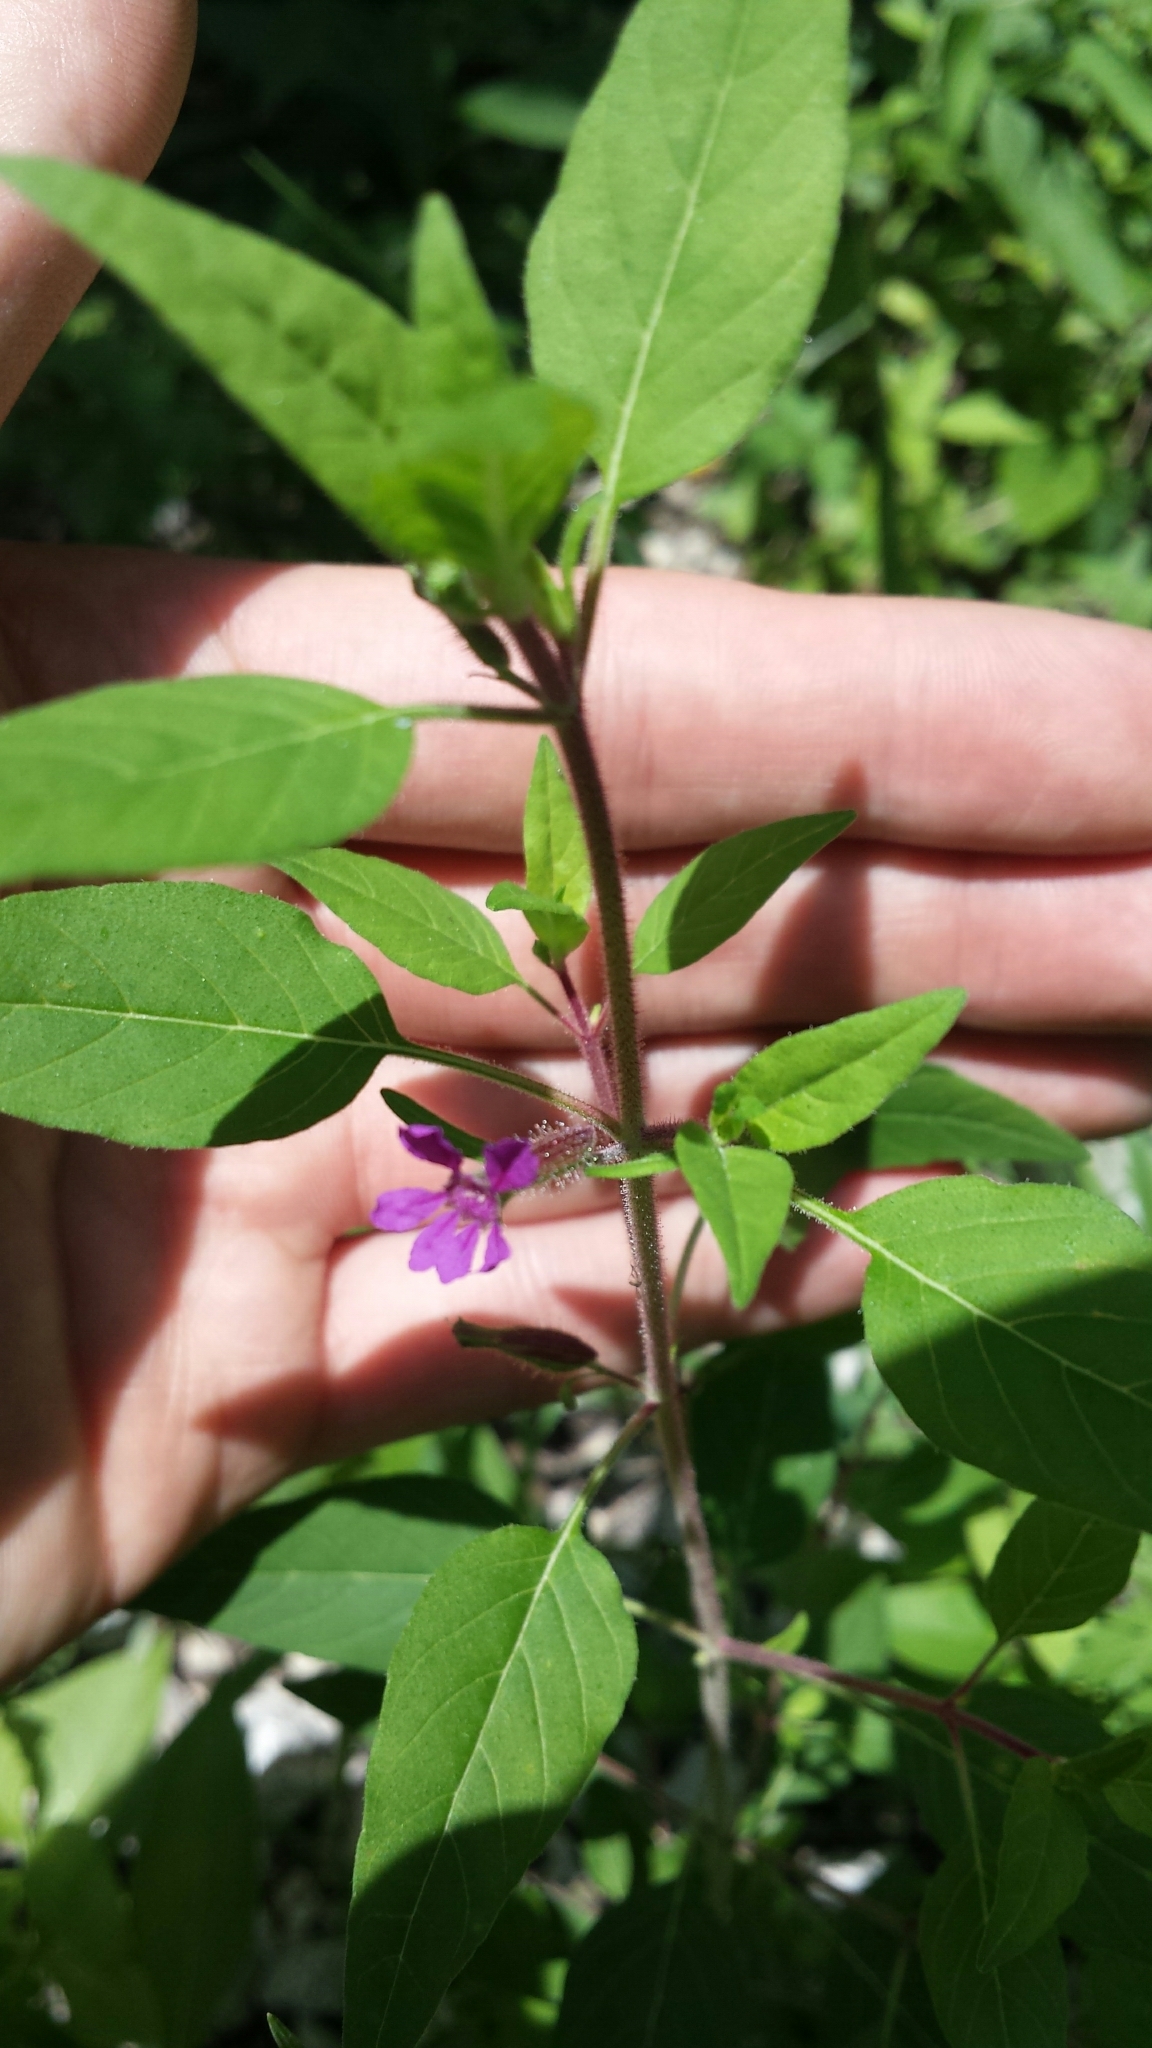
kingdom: Plantae
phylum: Tracheophyta
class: Magnoliopsida
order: Myrtales
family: Lythraceae
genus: Cuphea
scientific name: Cuphea viscosissima
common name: Clammy cuphea
